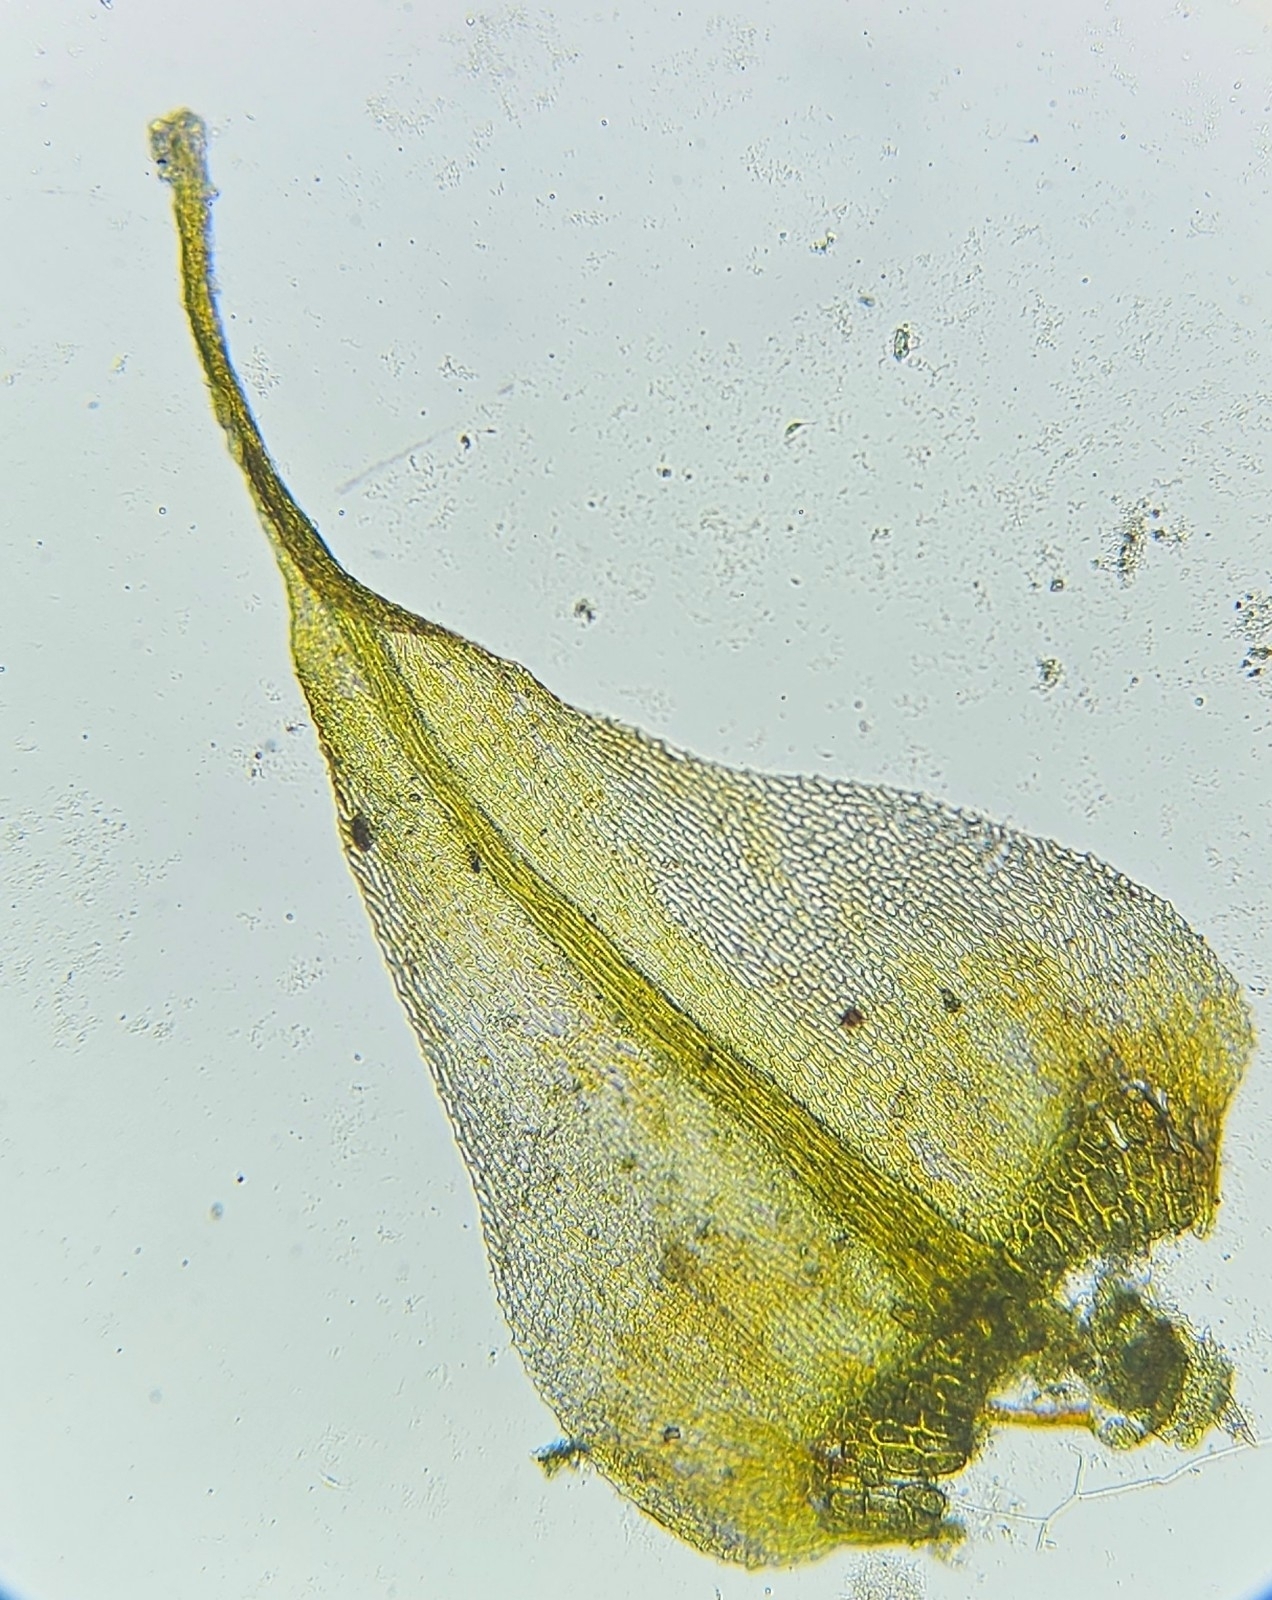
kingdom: Plantae
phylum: Bryophyta
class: Bryopsida
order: Hypnales
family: Amblystegiaceae
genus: Cratoneuron
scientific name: Cratoneuron filicinum
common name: Fern-leaved hook moss
